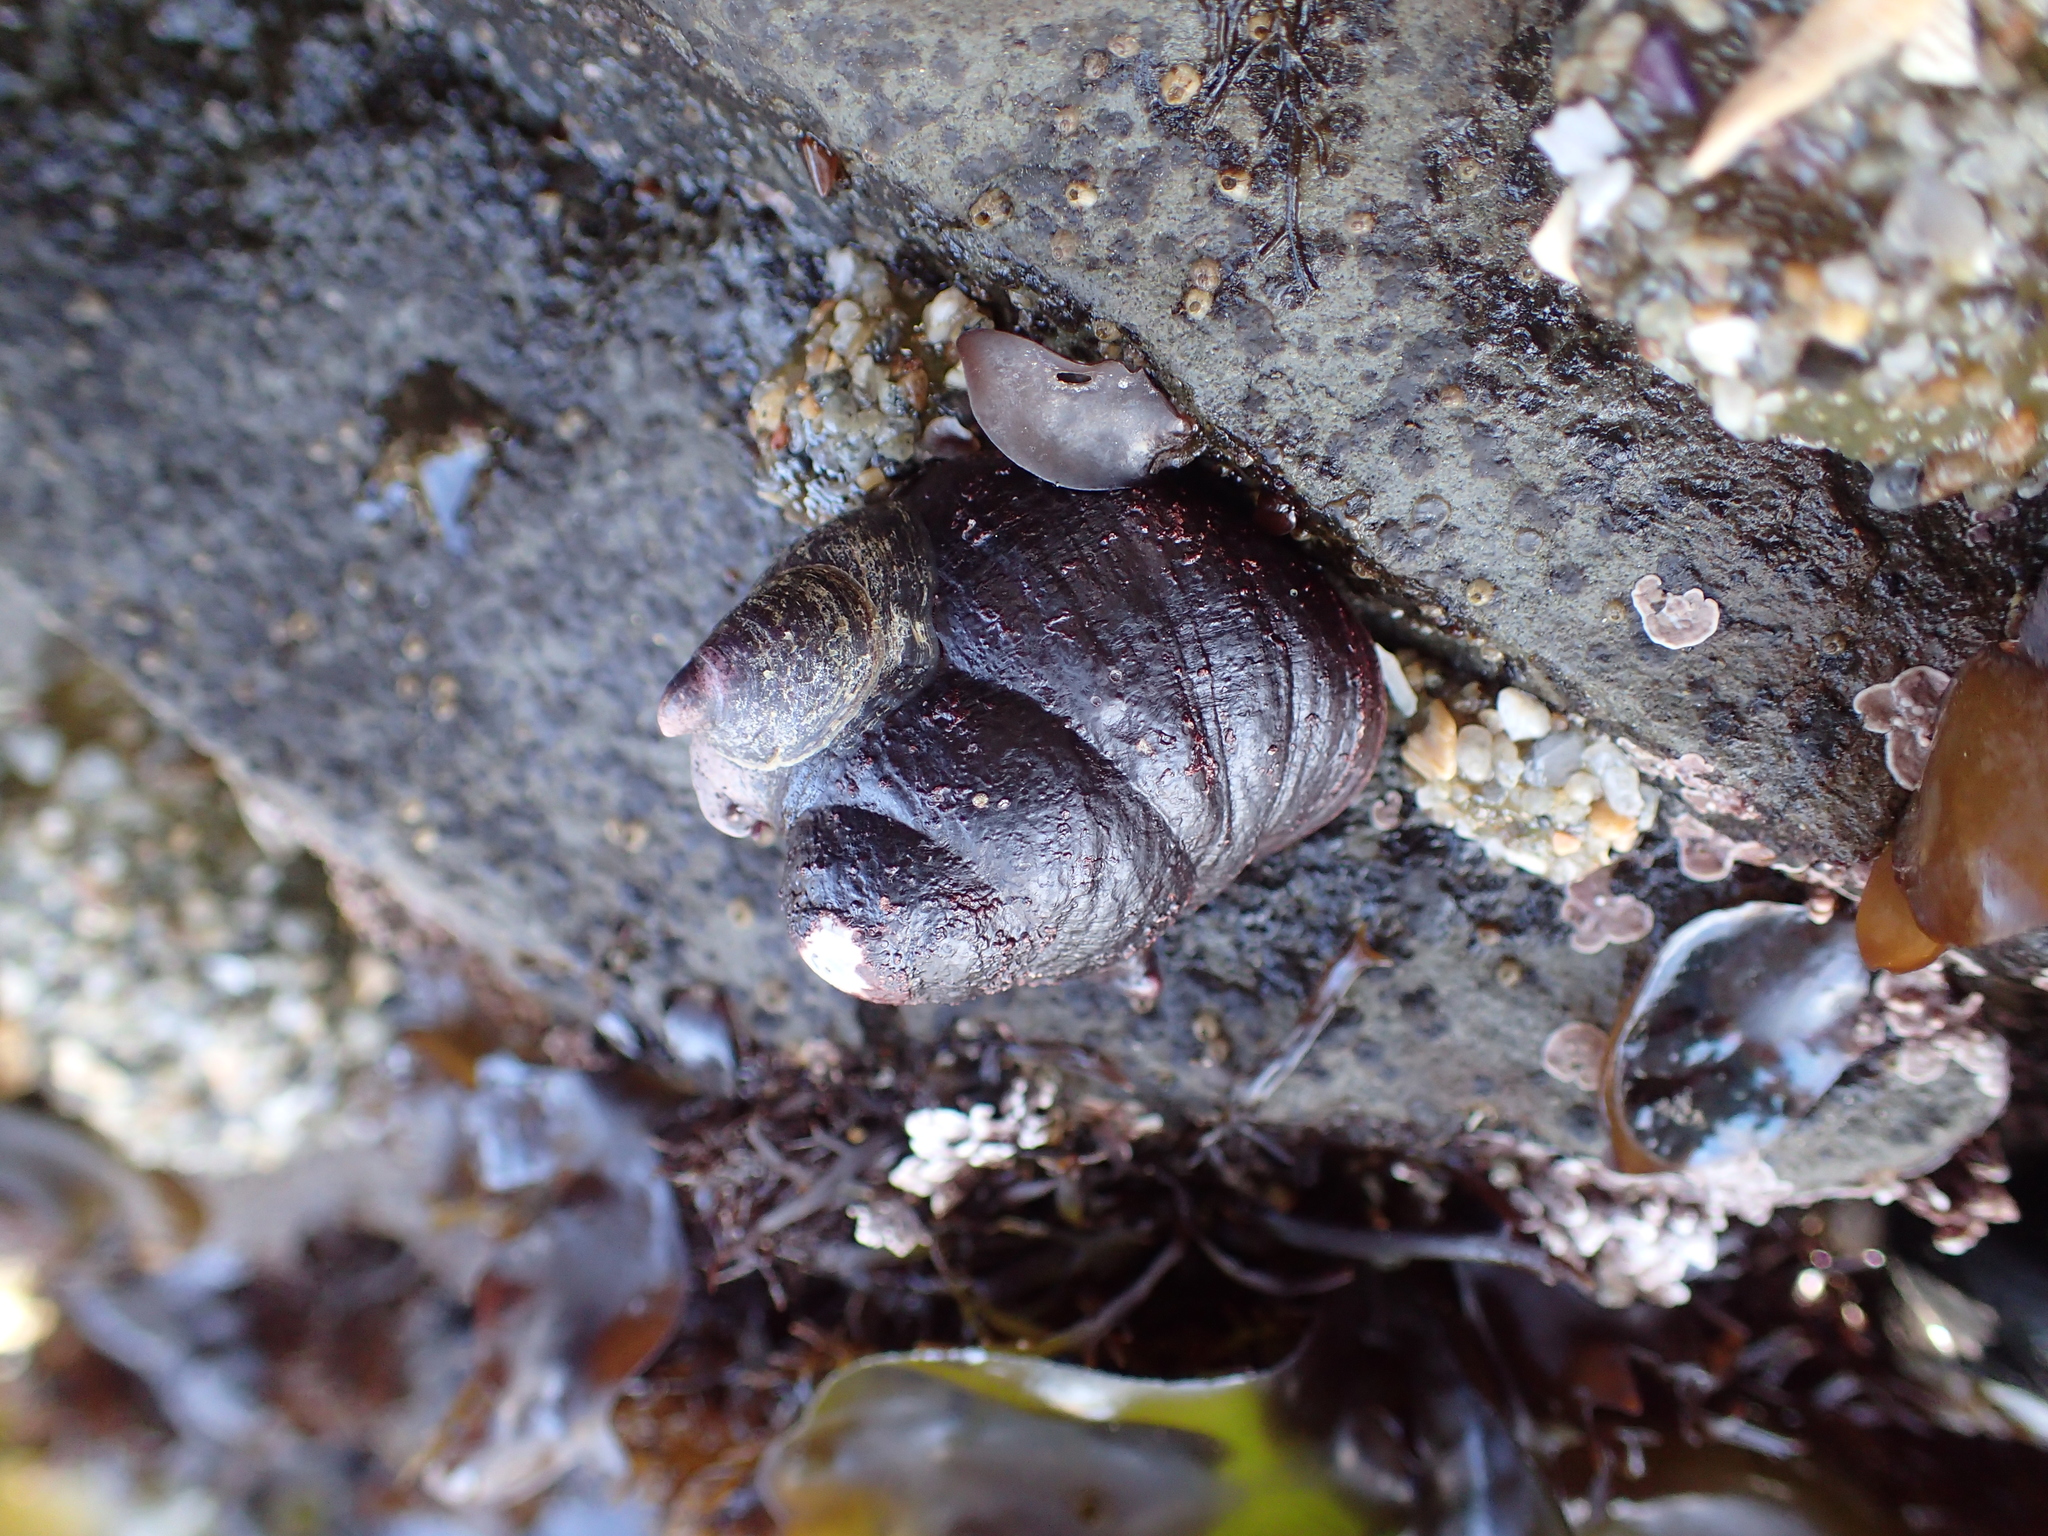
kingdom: Animalia
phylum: Mollusca
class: Gastropoda
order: Trochida
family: Tegulidae
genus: Tegula
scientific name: Tegula funebralis
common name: Black tegula
